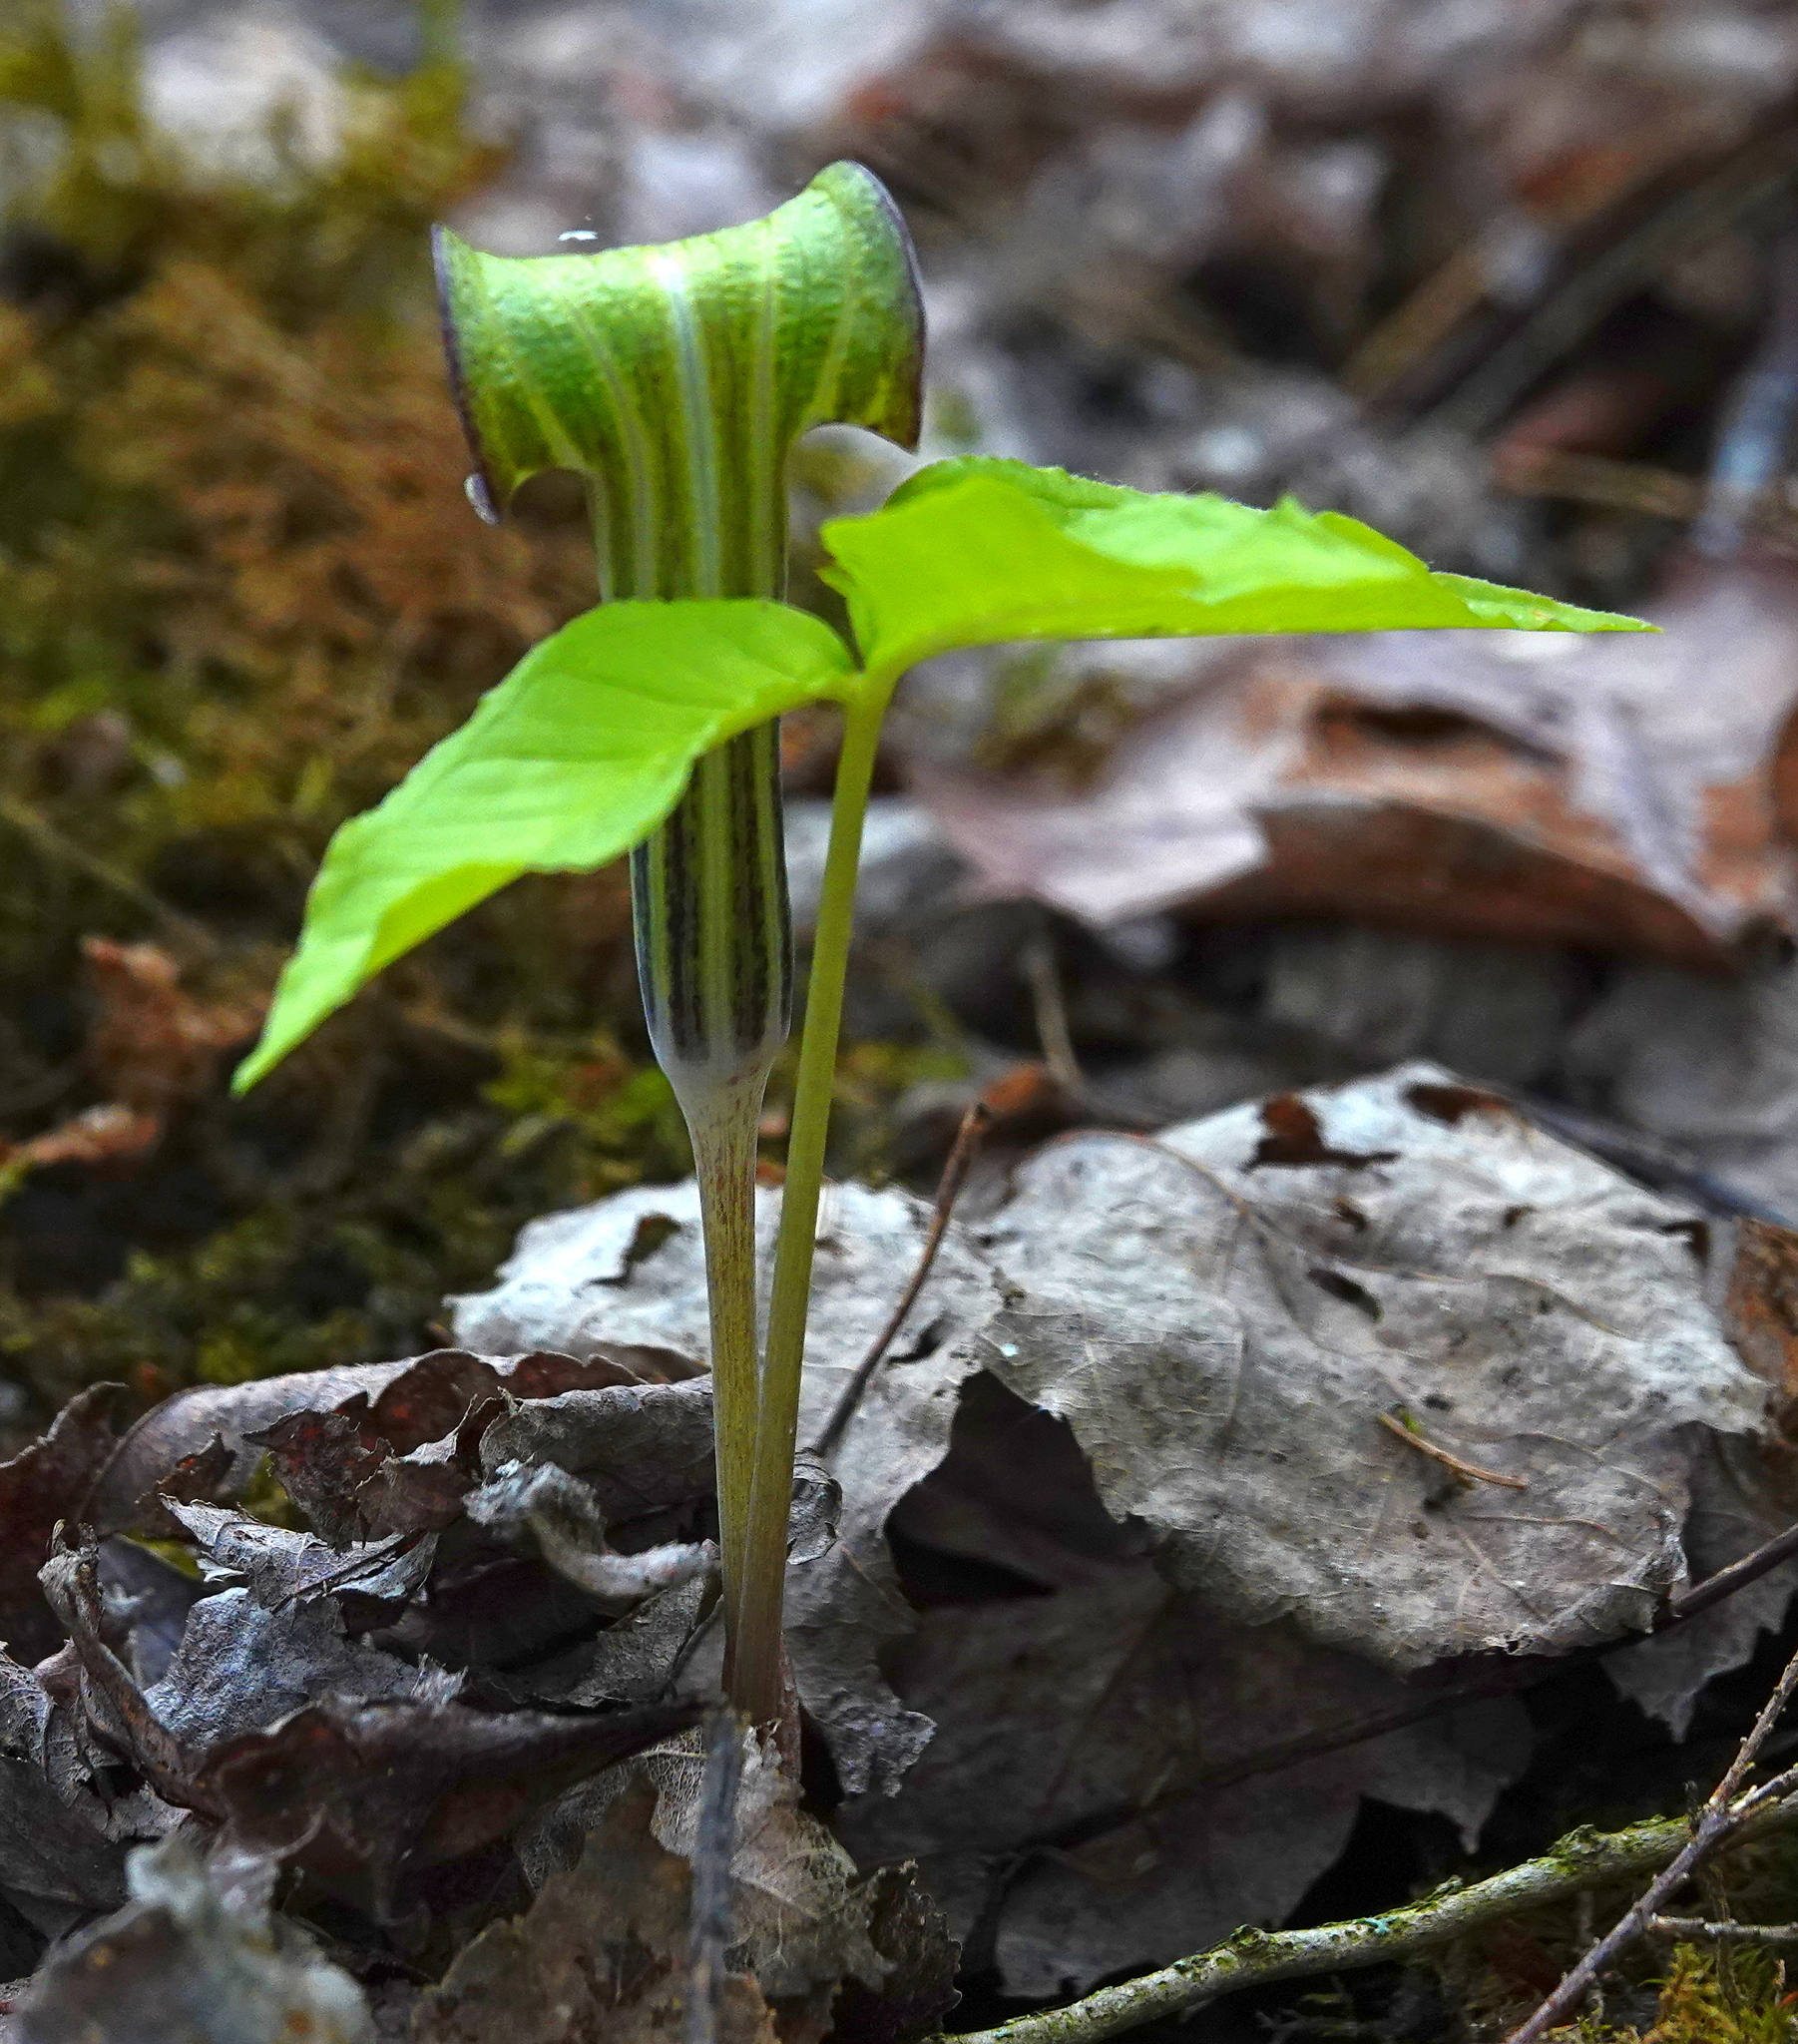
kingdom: Plantae
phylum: Tracheophyta
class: Liliopsida
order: Alismatales
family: Araceae
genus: Arisaema
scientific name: Arisaema triphyllum
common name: Jack-in-the-pulpit
